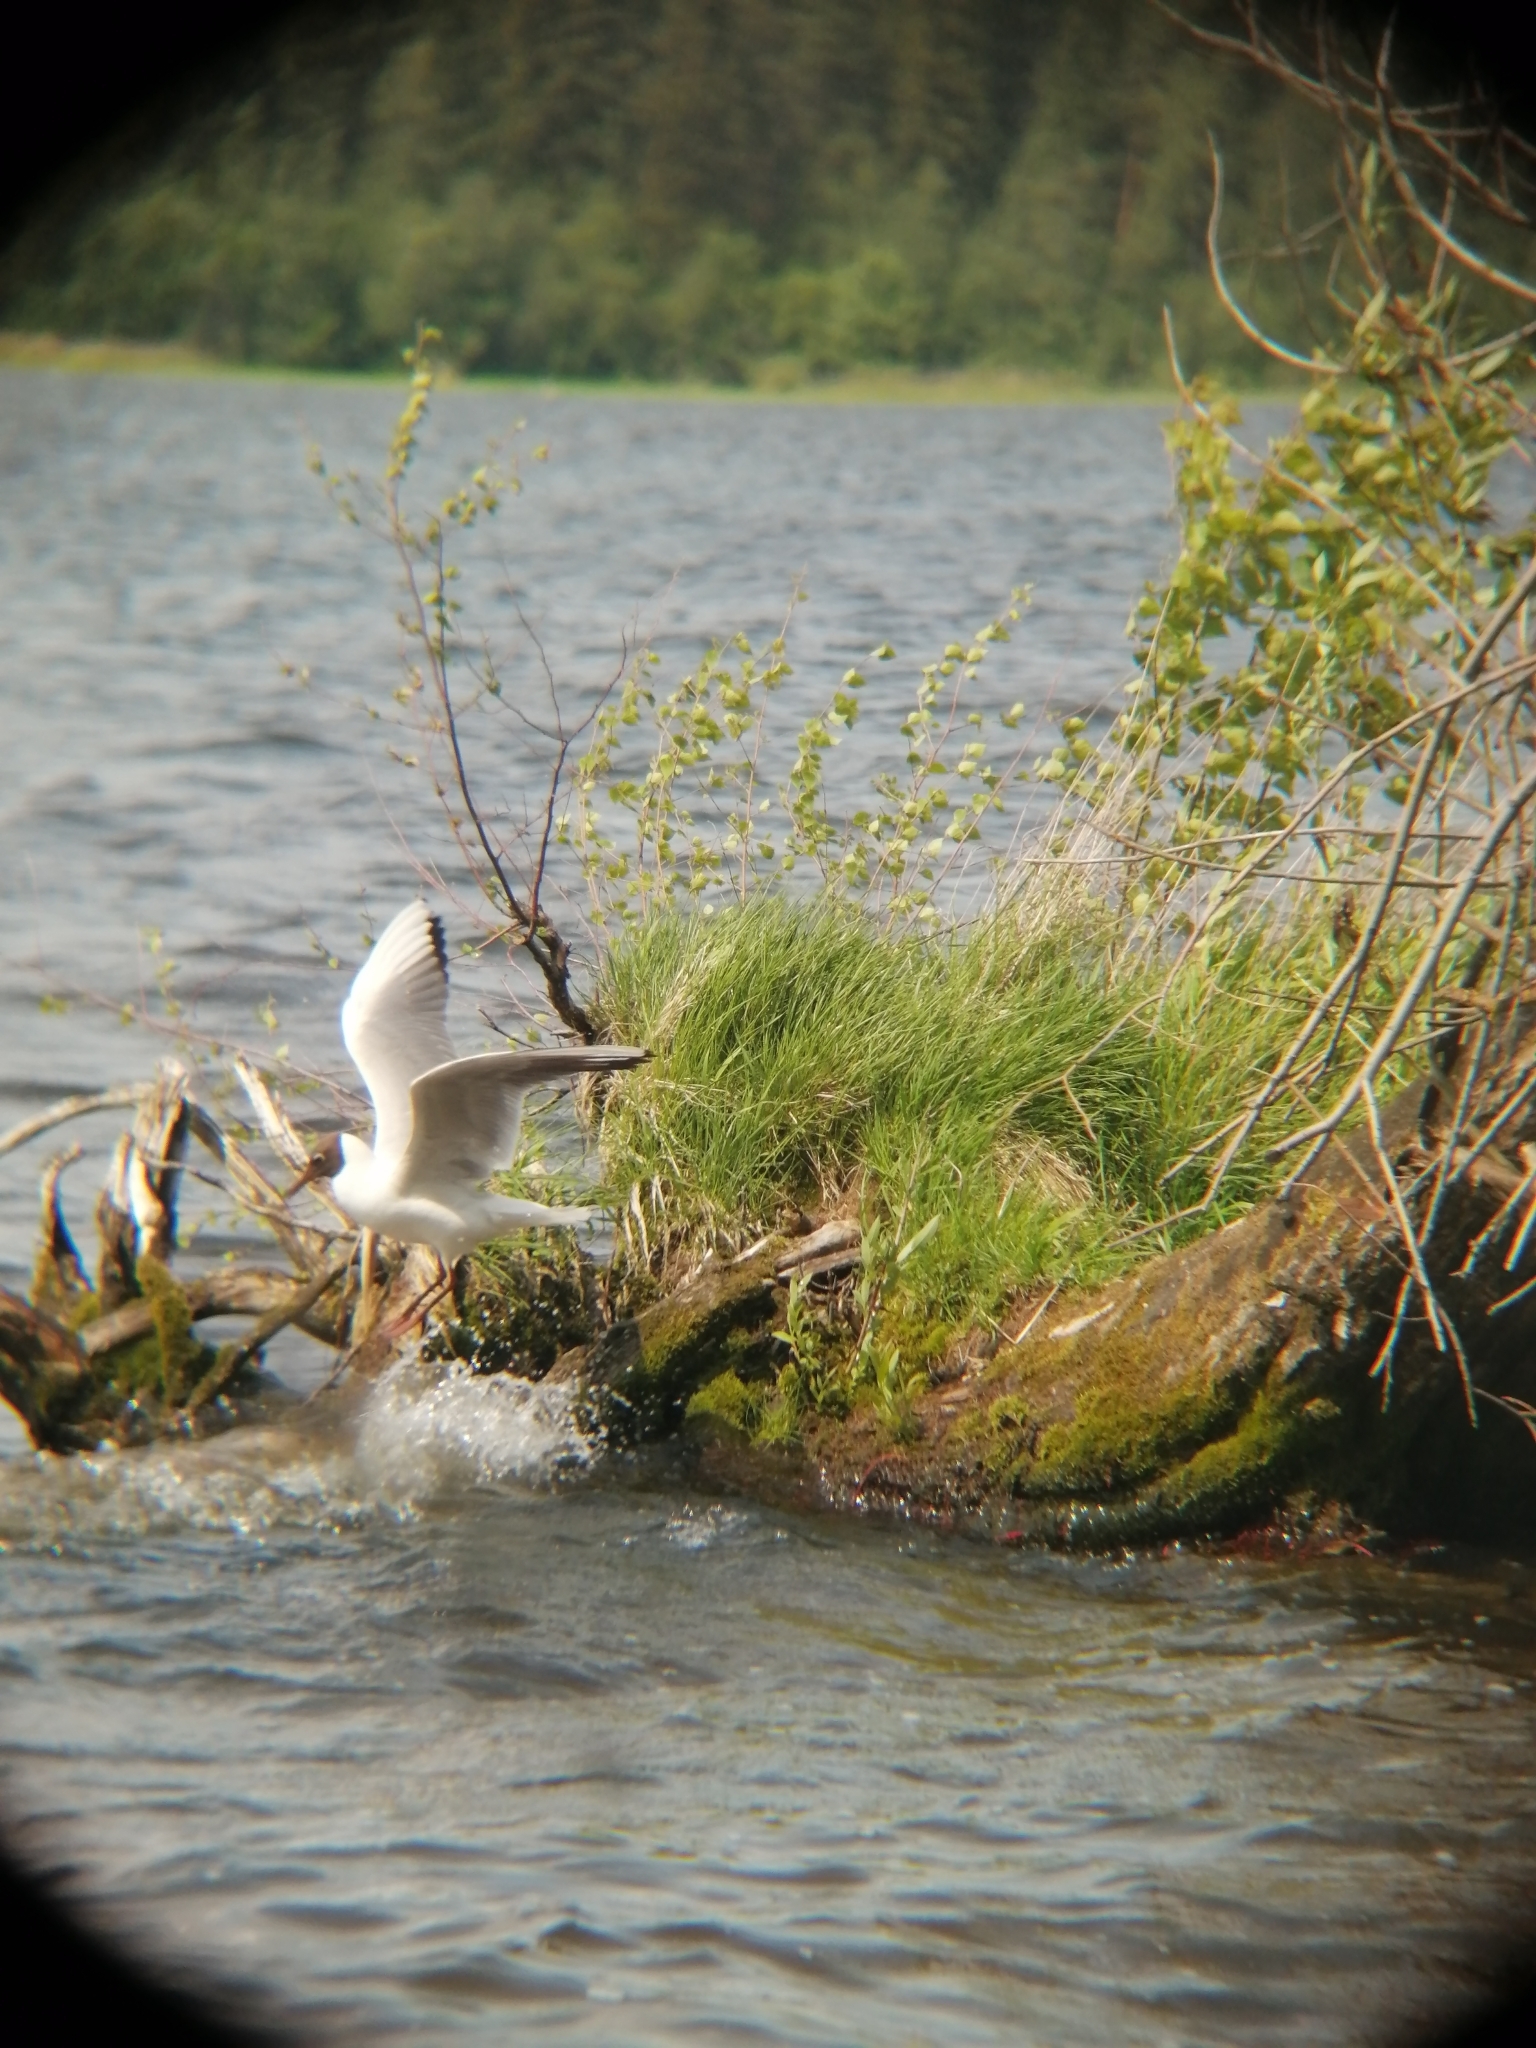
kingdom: Animalia
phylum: Chordata
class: Aves
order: Charadriiformes
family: Laridae
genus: Chroicocephalus
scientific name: Chroicocephalus ridibundus
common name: Black-headed gull
